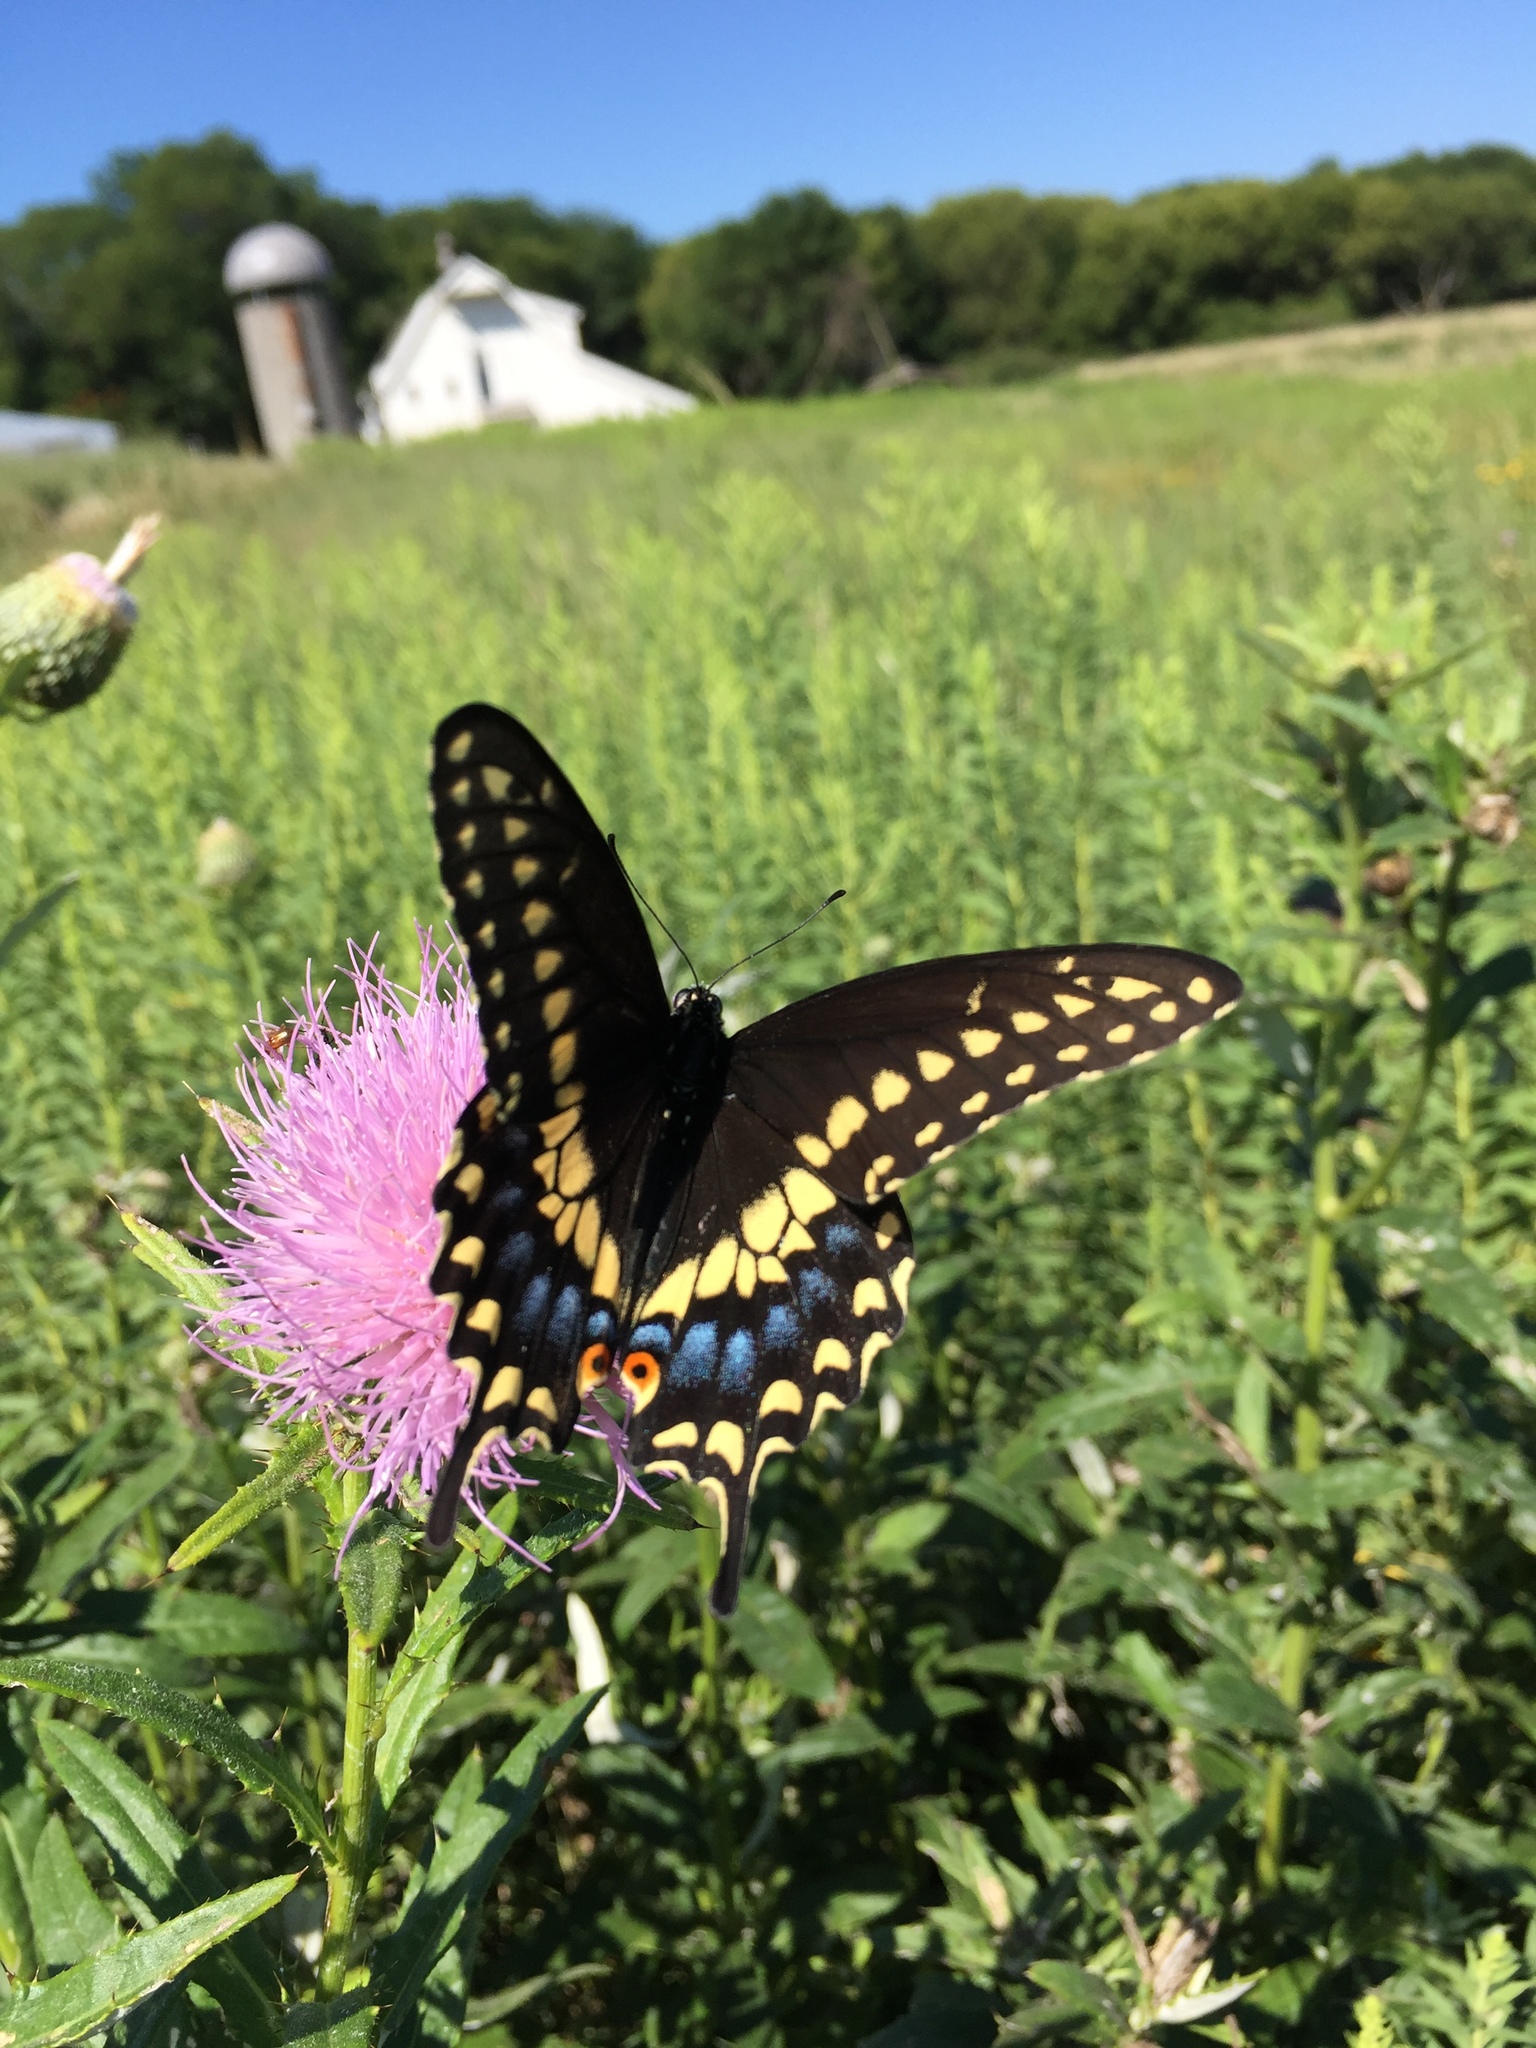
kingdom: Animalia
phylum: Arthropoda
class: Insecta
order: Lepidoptera
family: Papilionidae
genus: Papilio
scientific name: Papilio polyxenes
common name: Black swallowtail
